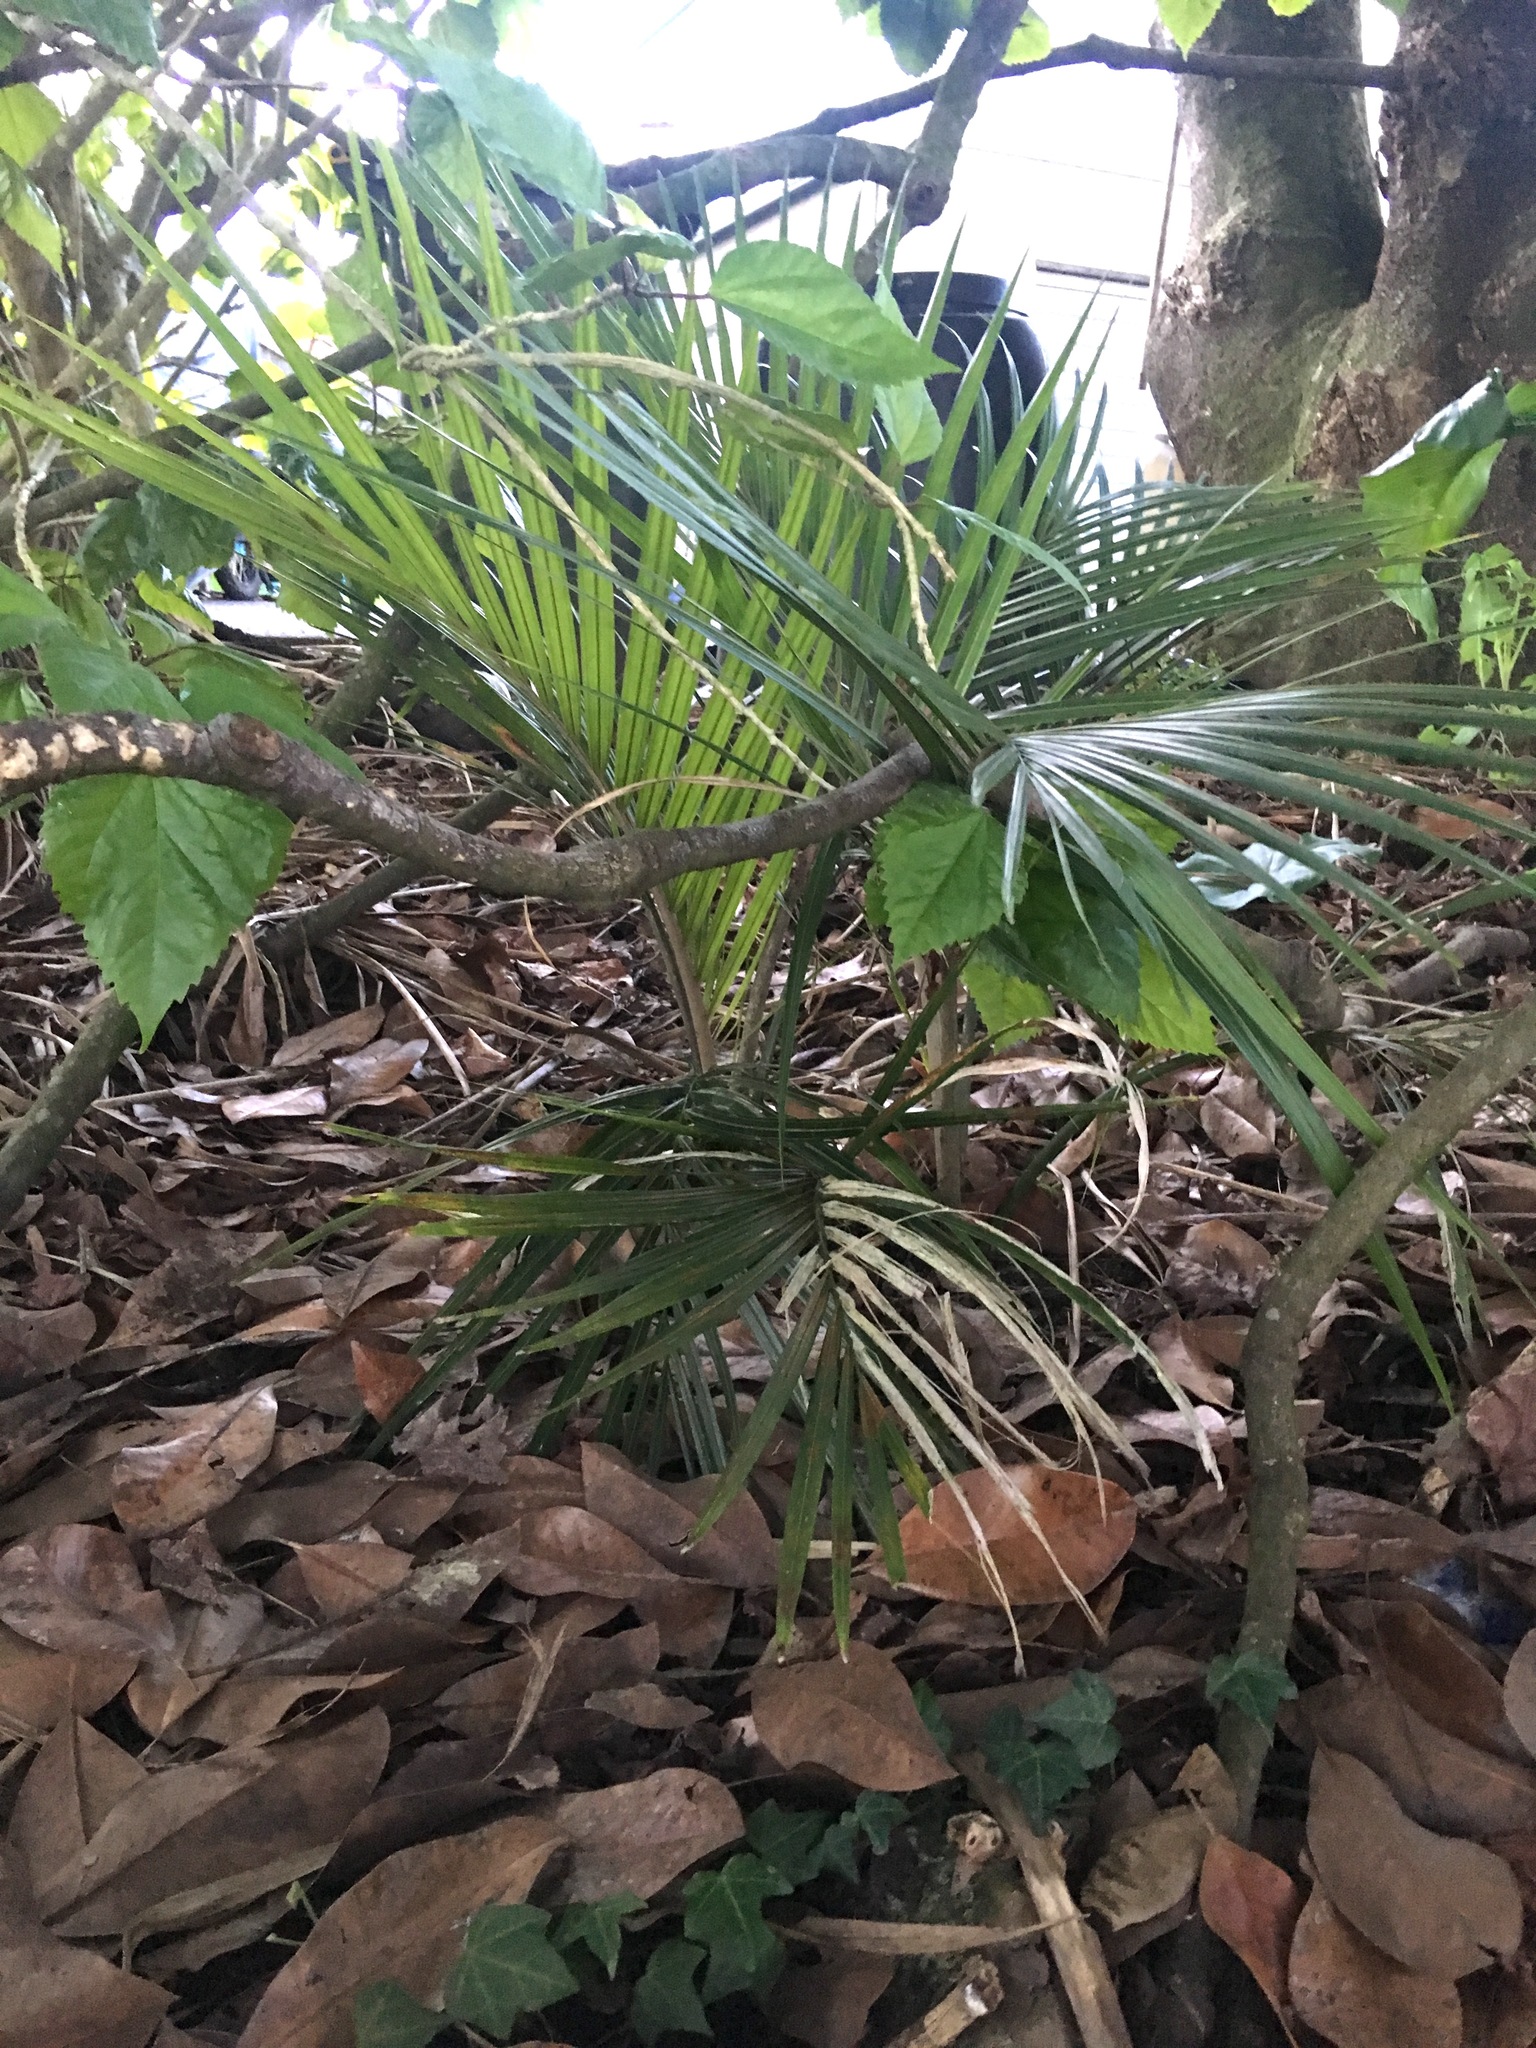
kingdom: Plantae
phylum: Tracheophyta
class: Liliopsida
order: Arecales
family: Arecaceae
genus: Rhopalostylis
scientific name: Rhopalostylis sapida
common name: Feather-duster palm
